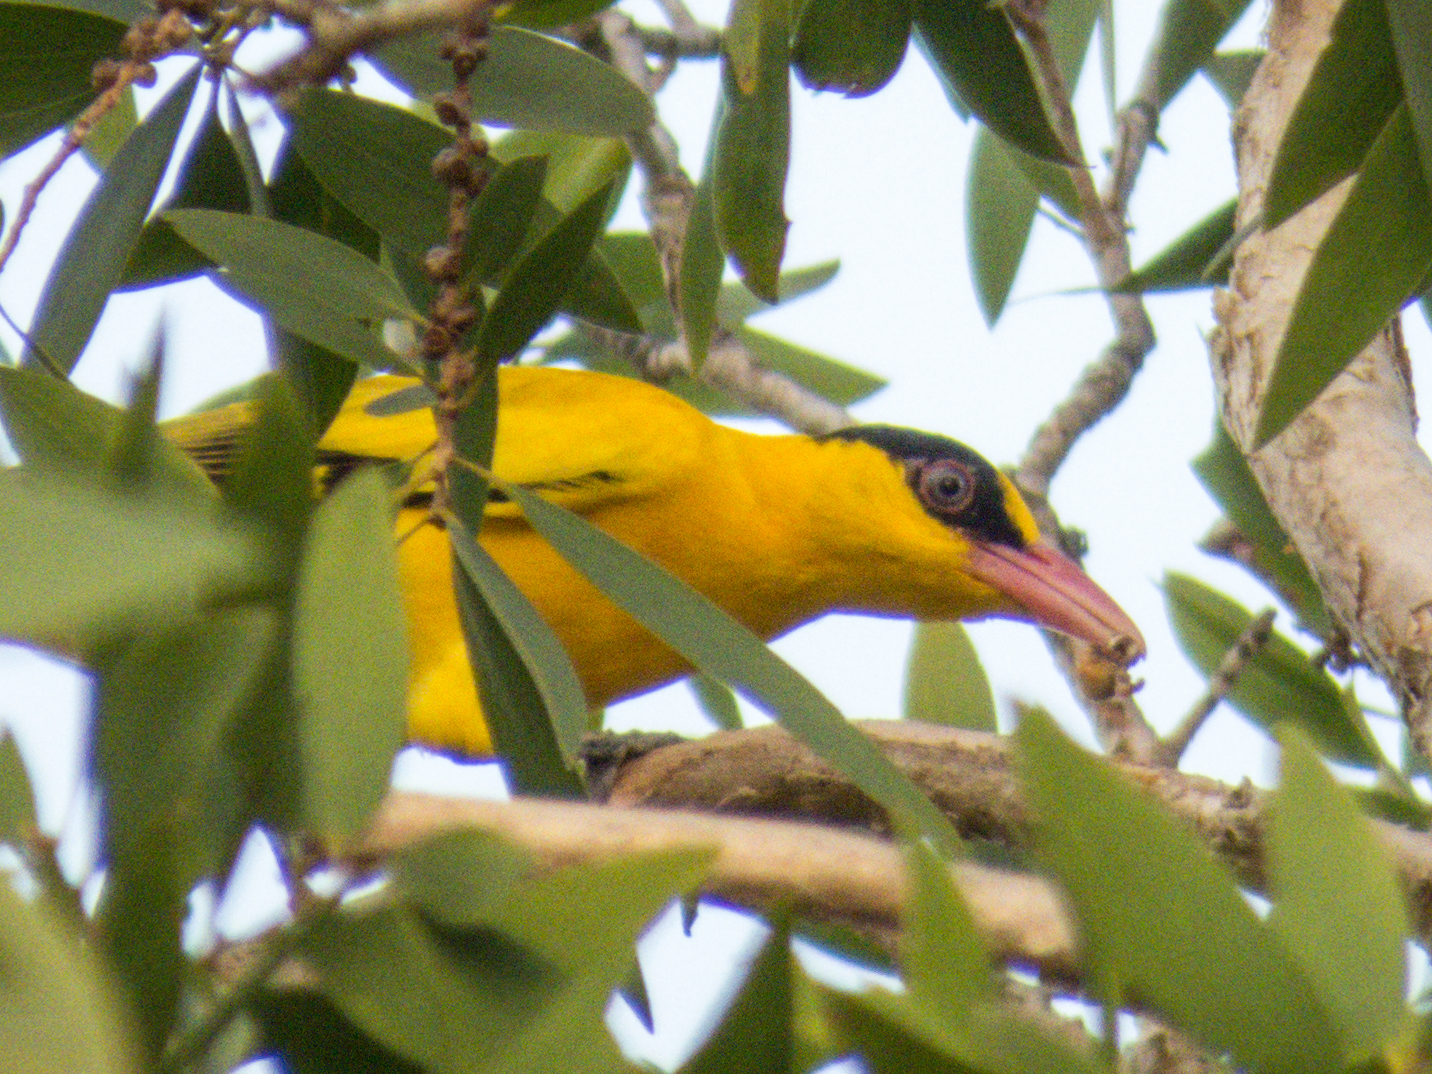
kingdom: Animalia
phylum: Chordata
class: Aves
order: Passeriformes
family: Oriolidae
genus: Oriolus
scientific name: Oriolus chinensis
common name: Black-naped oriole
